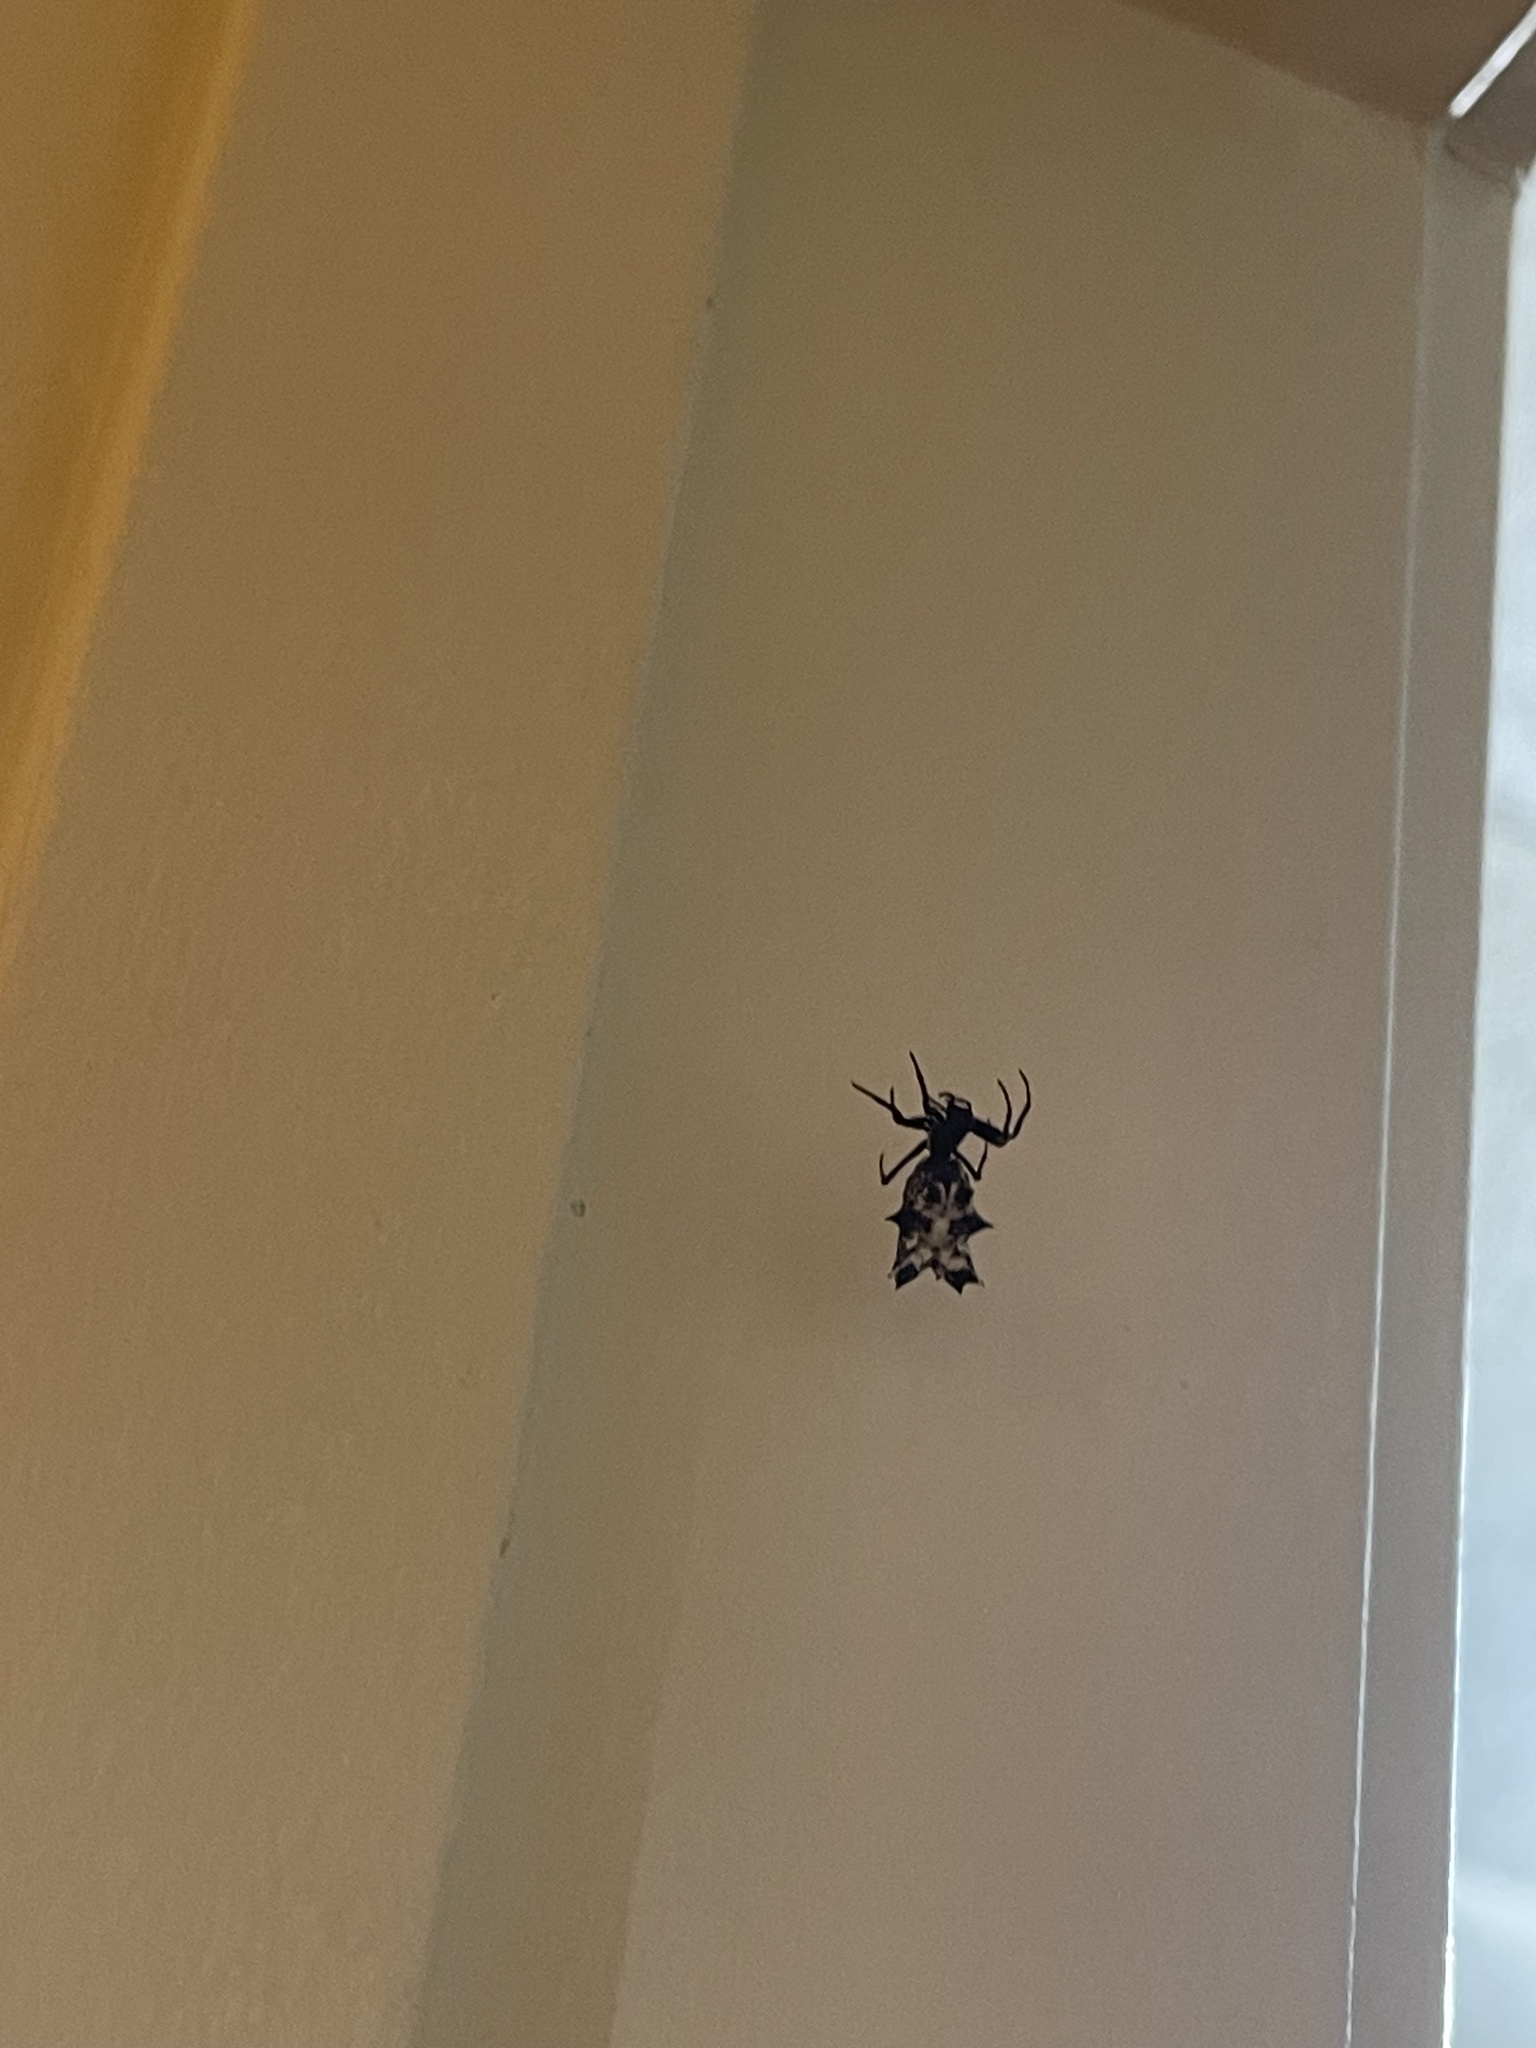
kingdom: Animalia
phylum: Arthropoda
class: Arachnida
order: Araneae
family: Araneidae
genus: Micrathena
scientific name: Micrathena gracilis
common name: Orb weavers
